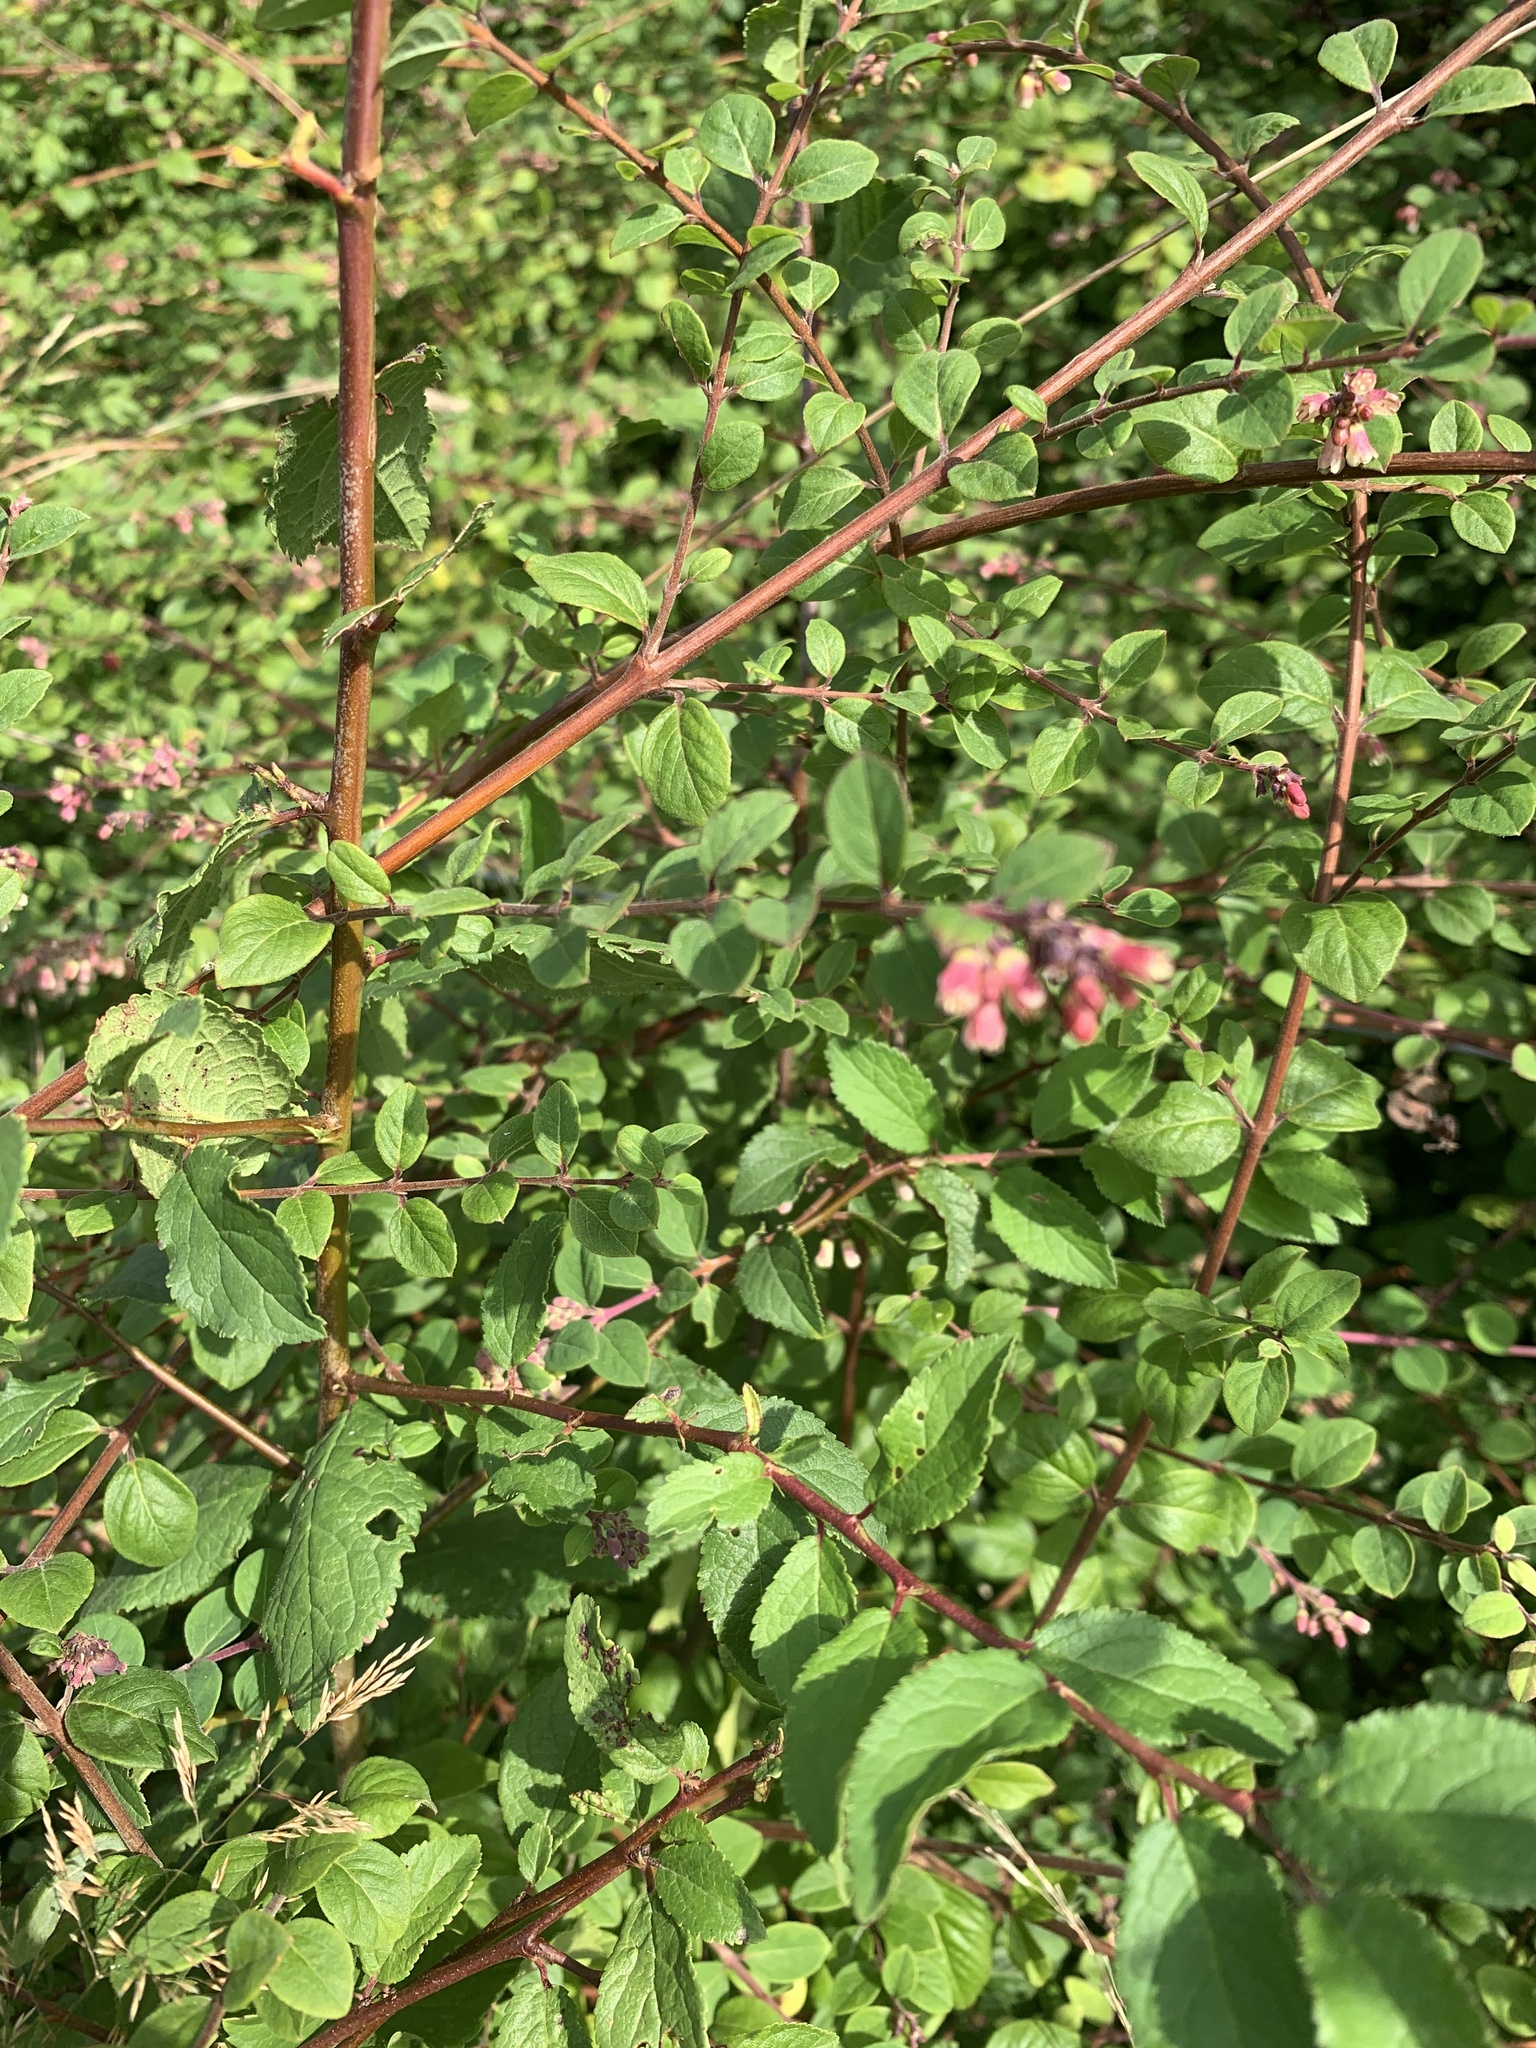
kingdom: Plantae
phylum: Tracheophyta
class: Magnoliopsida
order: Dipsacales
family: Caprifoliaceae
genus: Symphoricarpos
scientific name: Symphoricarpos albus
